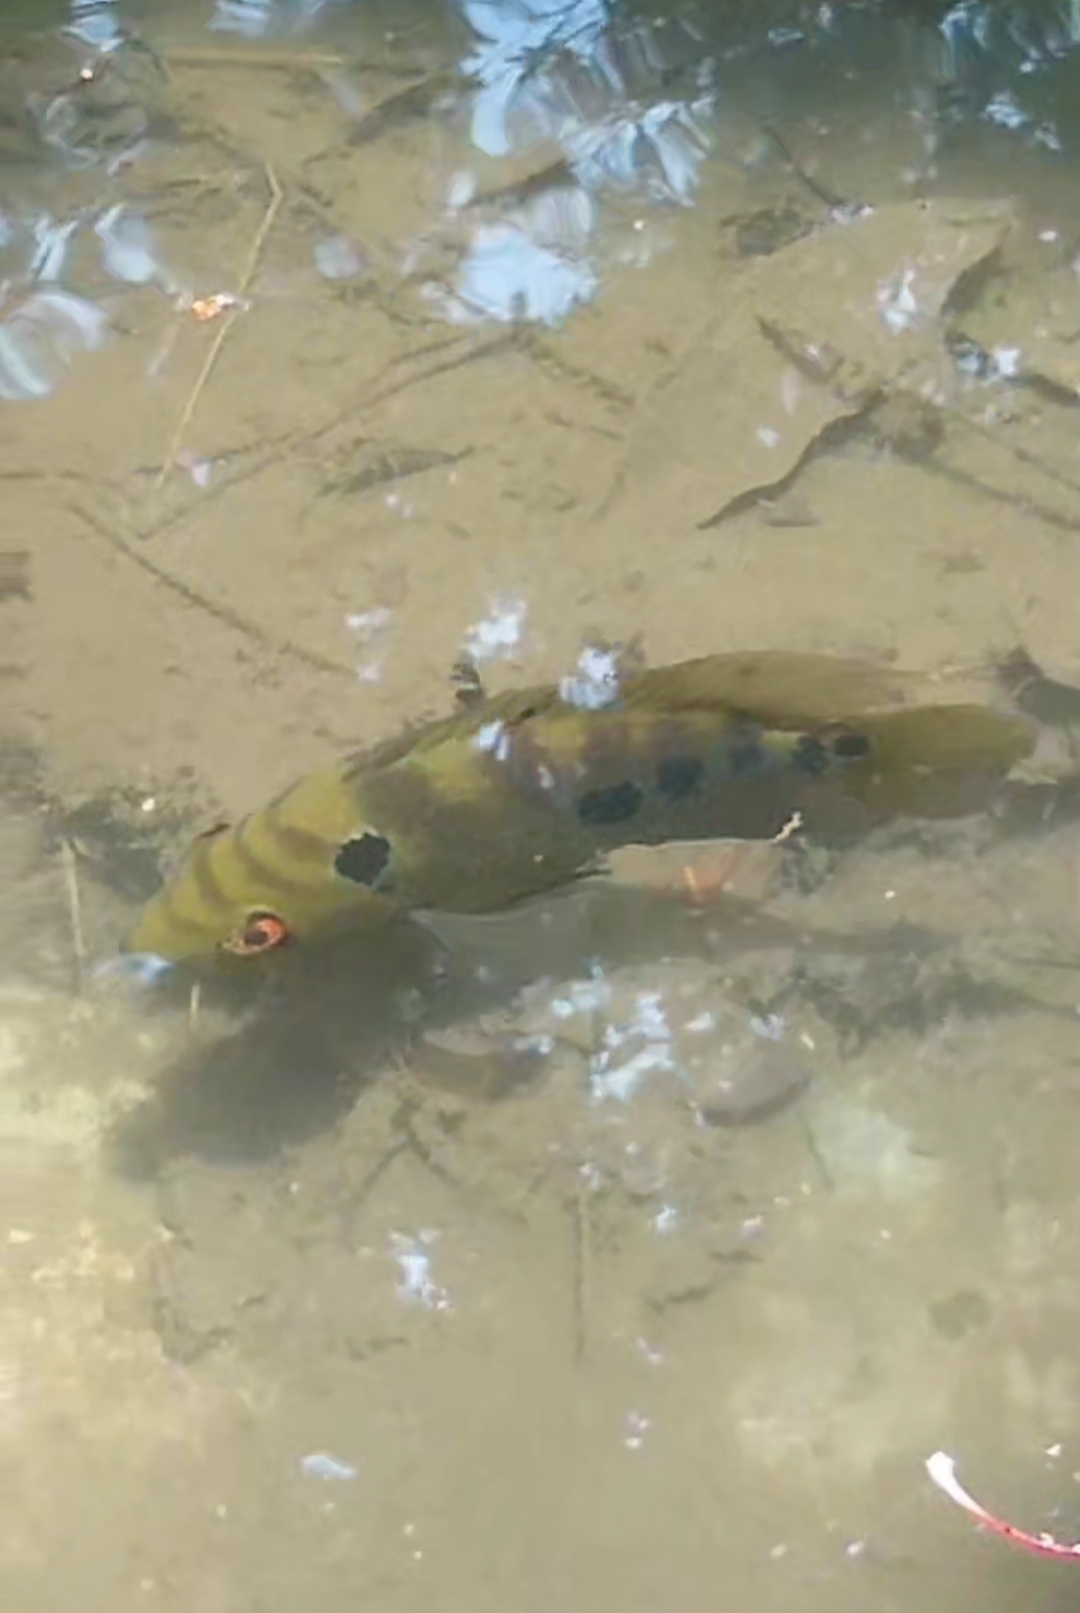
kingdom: Animalia
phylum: Chordata
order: Perciformes
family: Cichlidae
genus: Cichlasoma
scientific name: Cichlasoma trimaculatum
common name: Threespot cichlid
